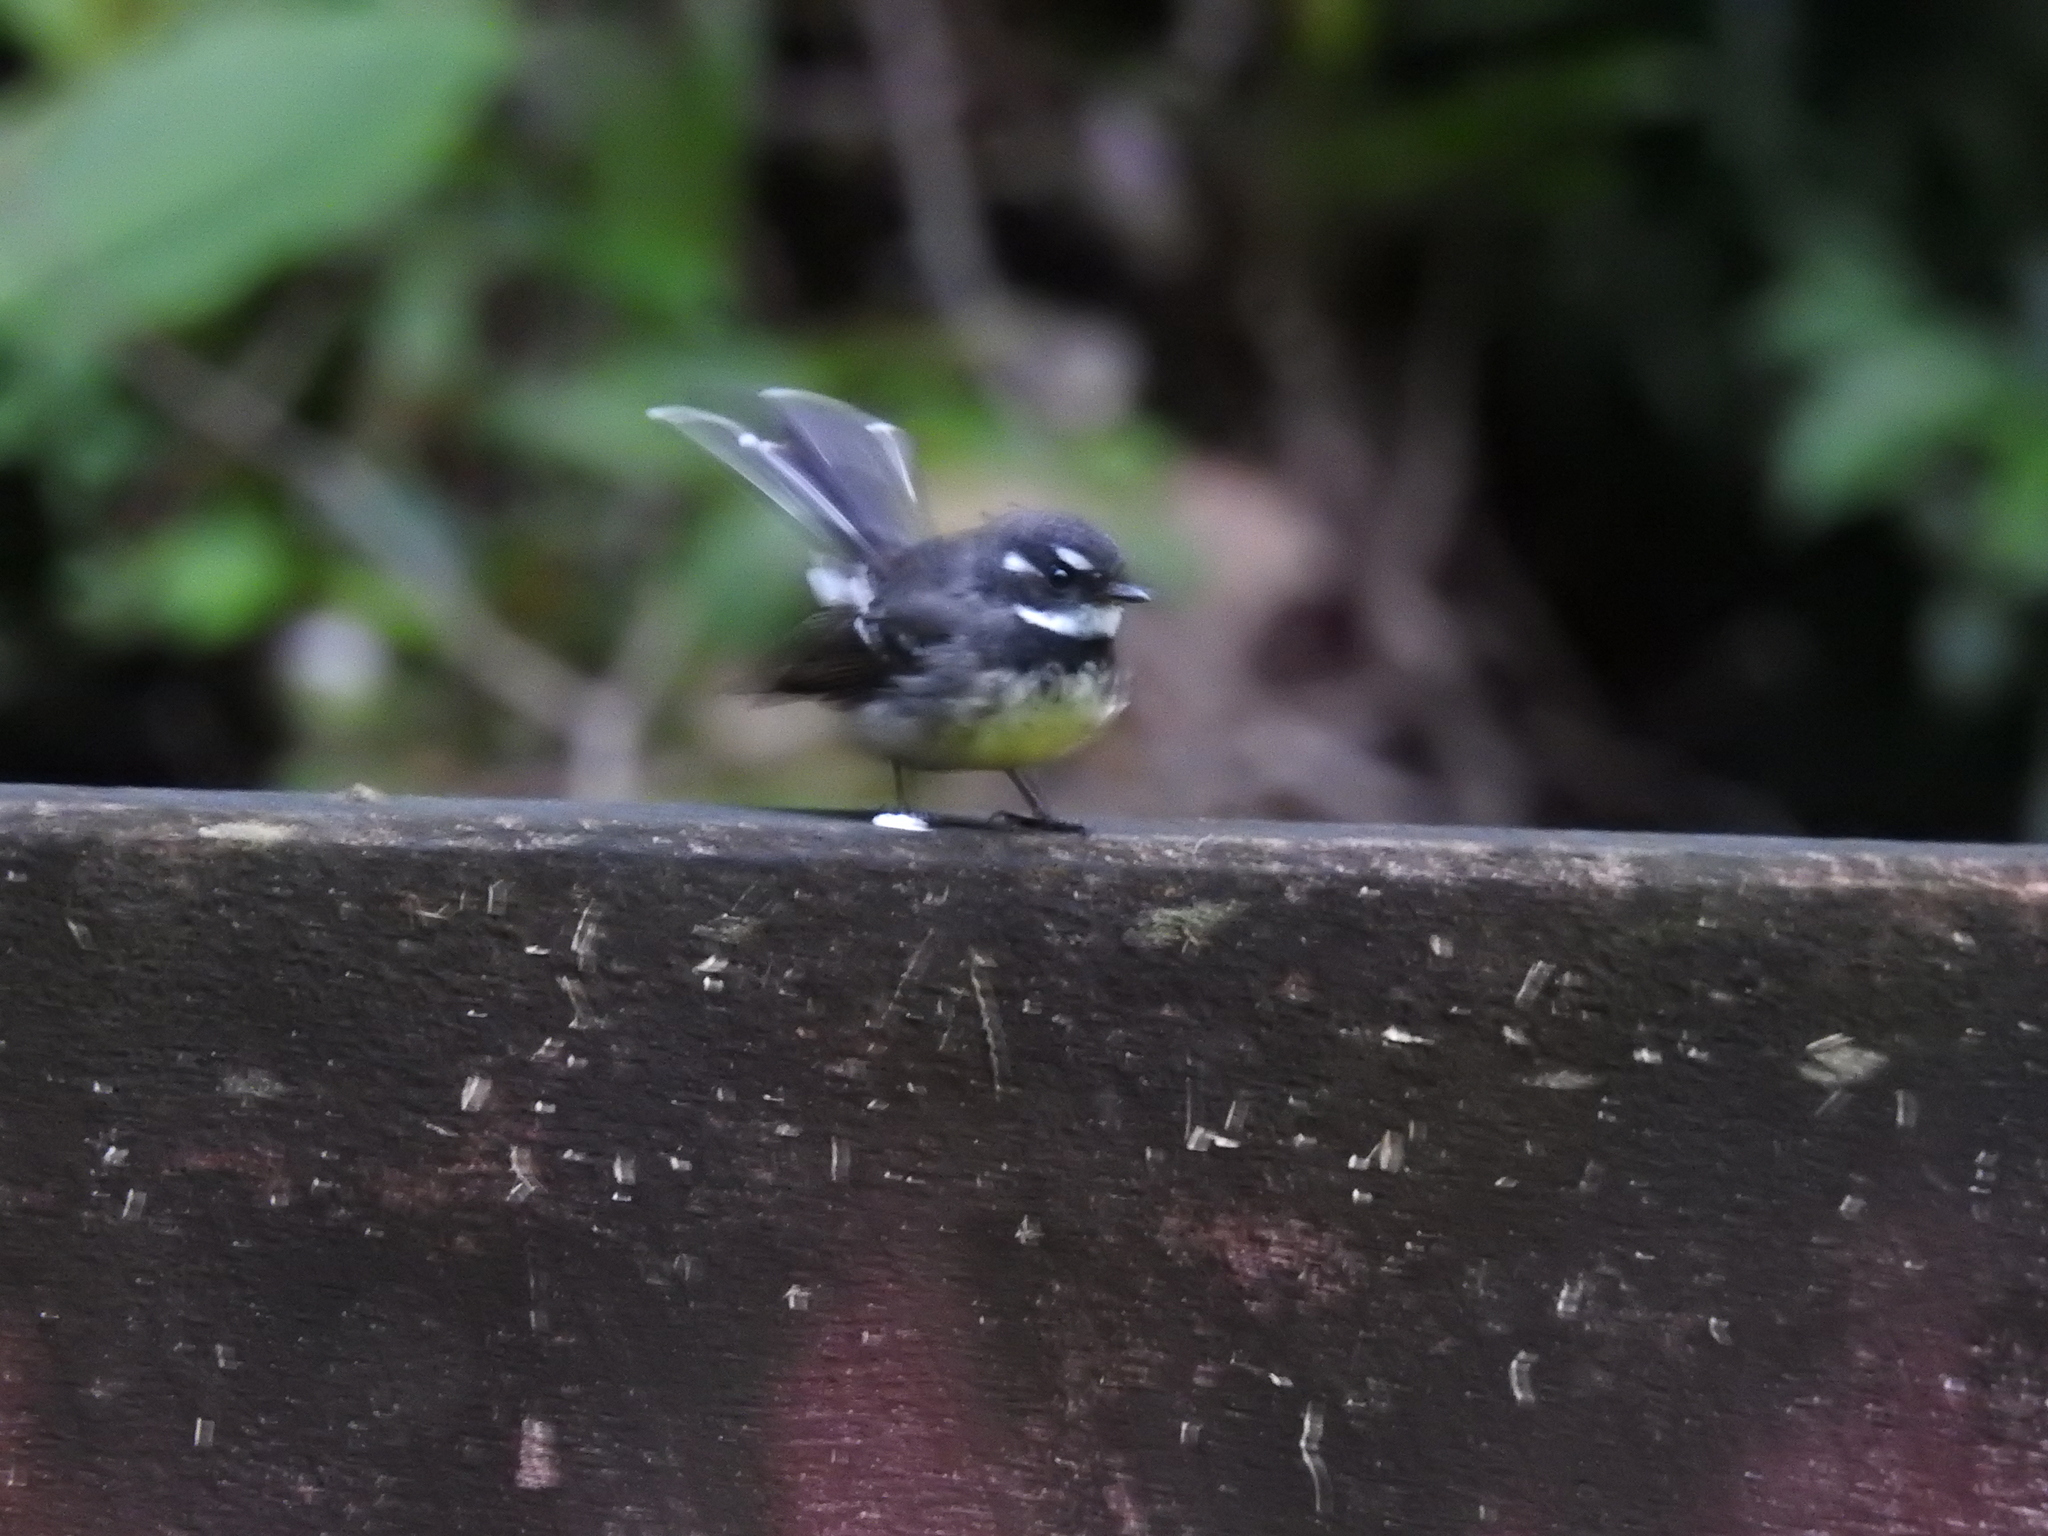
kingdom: Animalia
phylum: Chordata
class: Aves
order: Passeriformes
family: Rhipiduridae
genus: Rhipidura
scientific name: Rhipidura albiscapa
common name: Grey fantail
